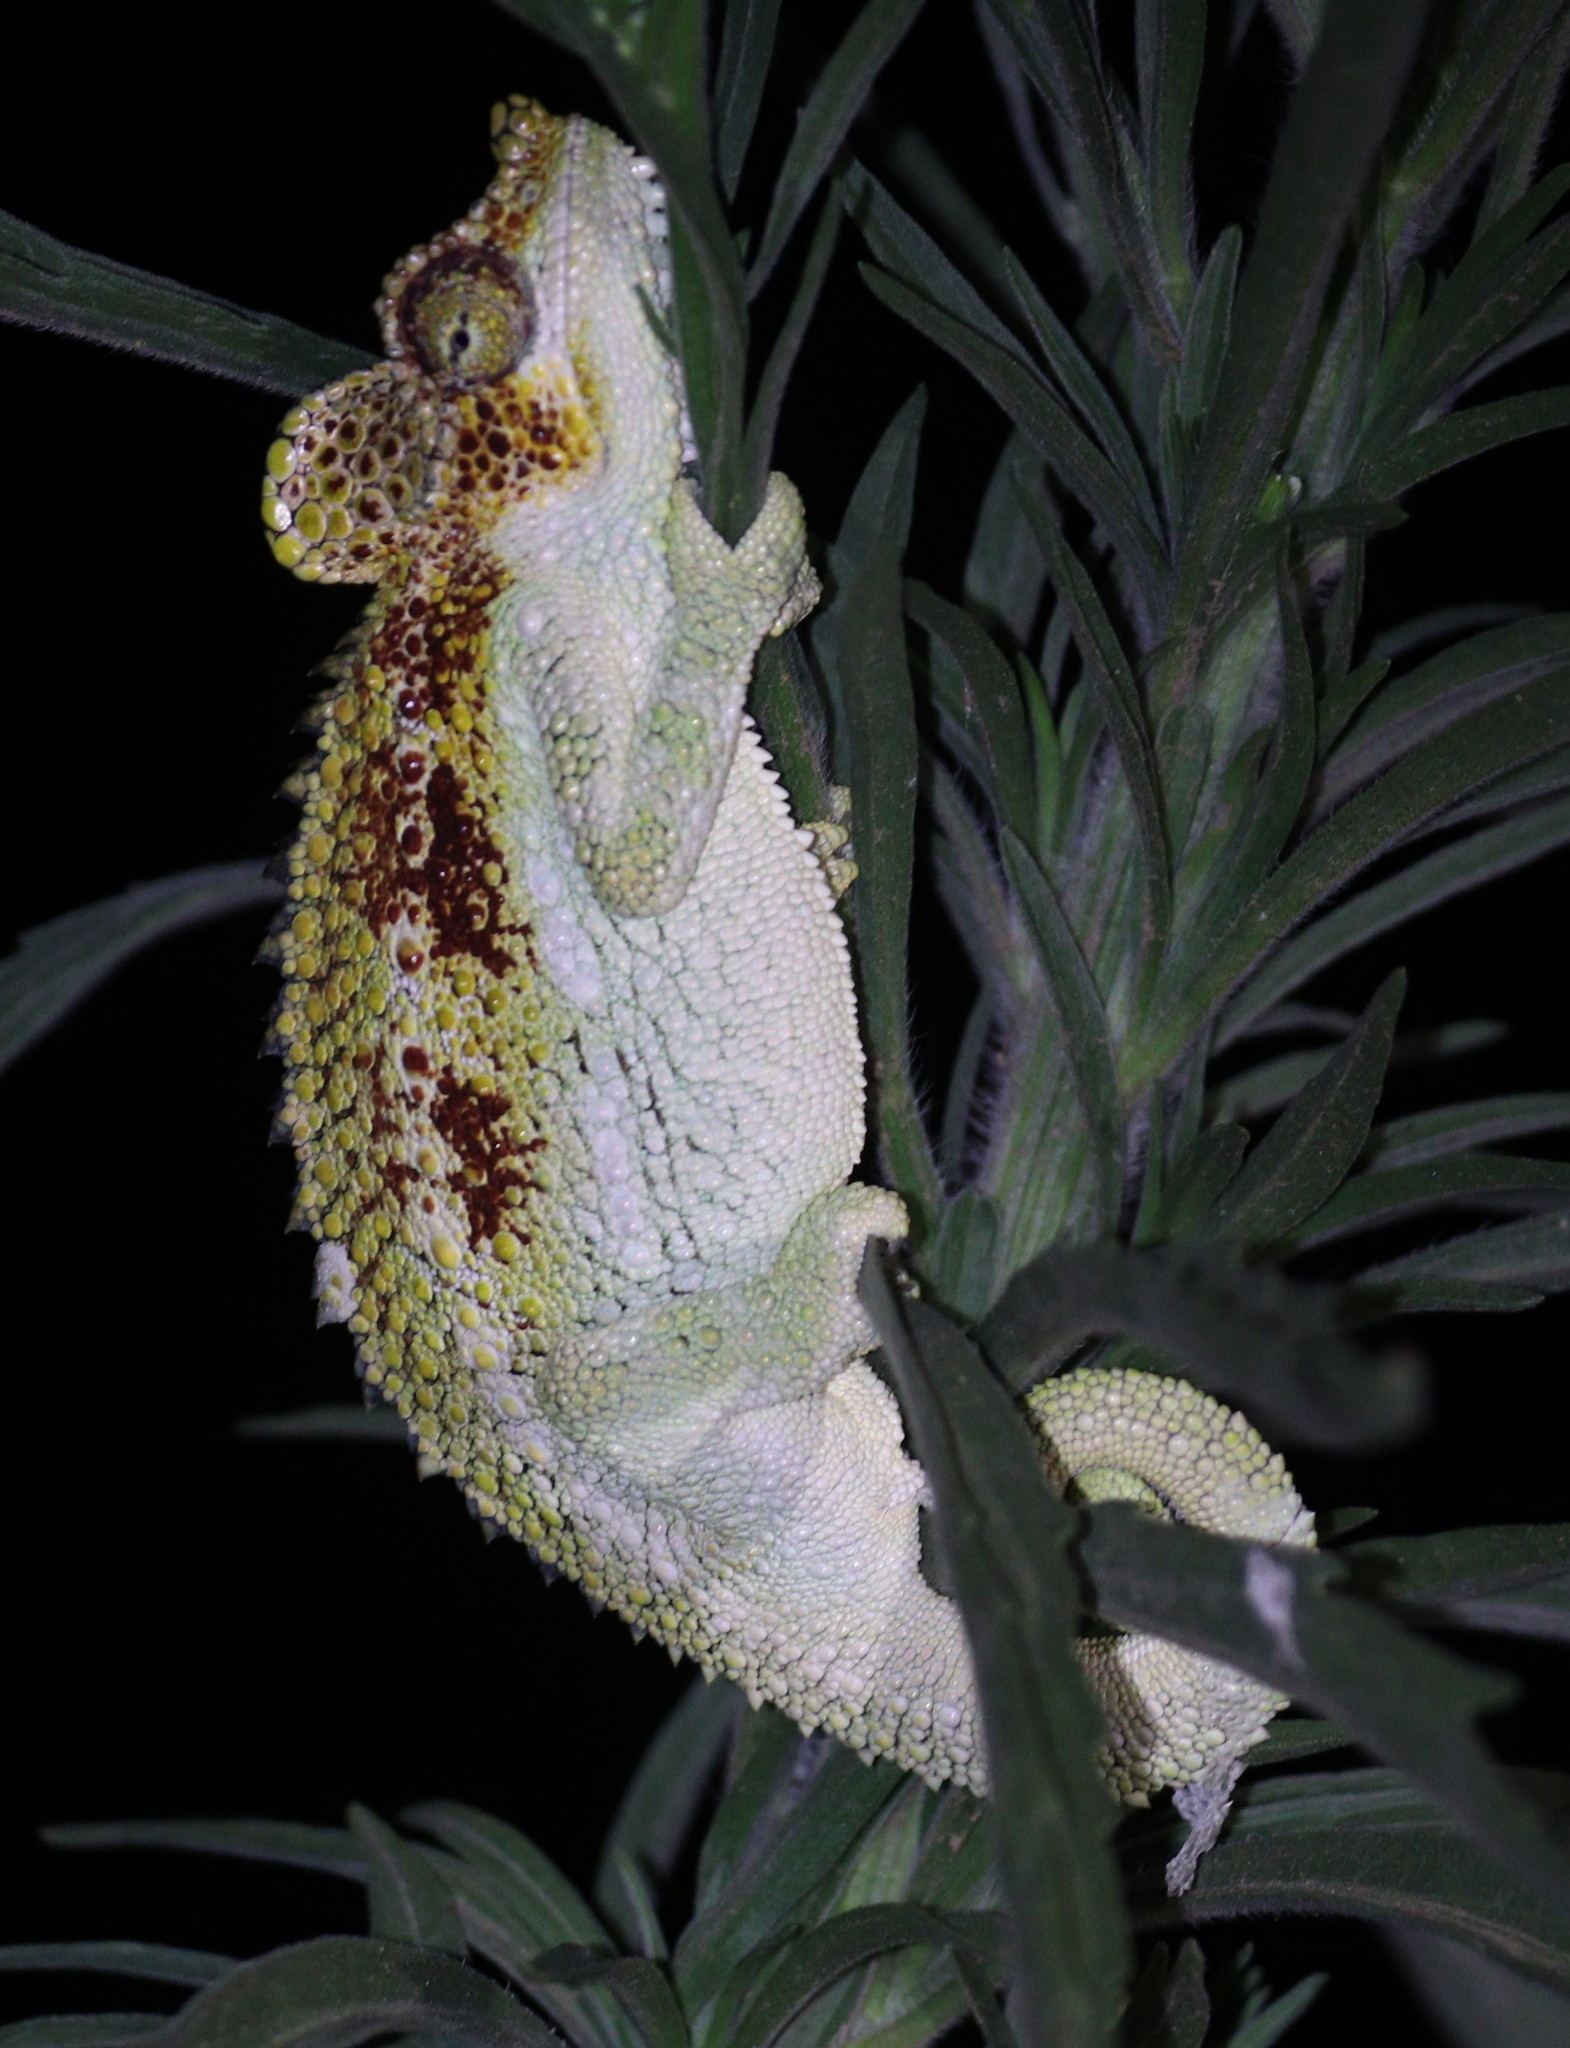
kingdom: Animalia
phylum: Chordata
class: Squamata
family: Chamaeleonidae
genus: Trioceros
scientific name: Trioceros hoehnelii
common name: High-casqued chameleon
